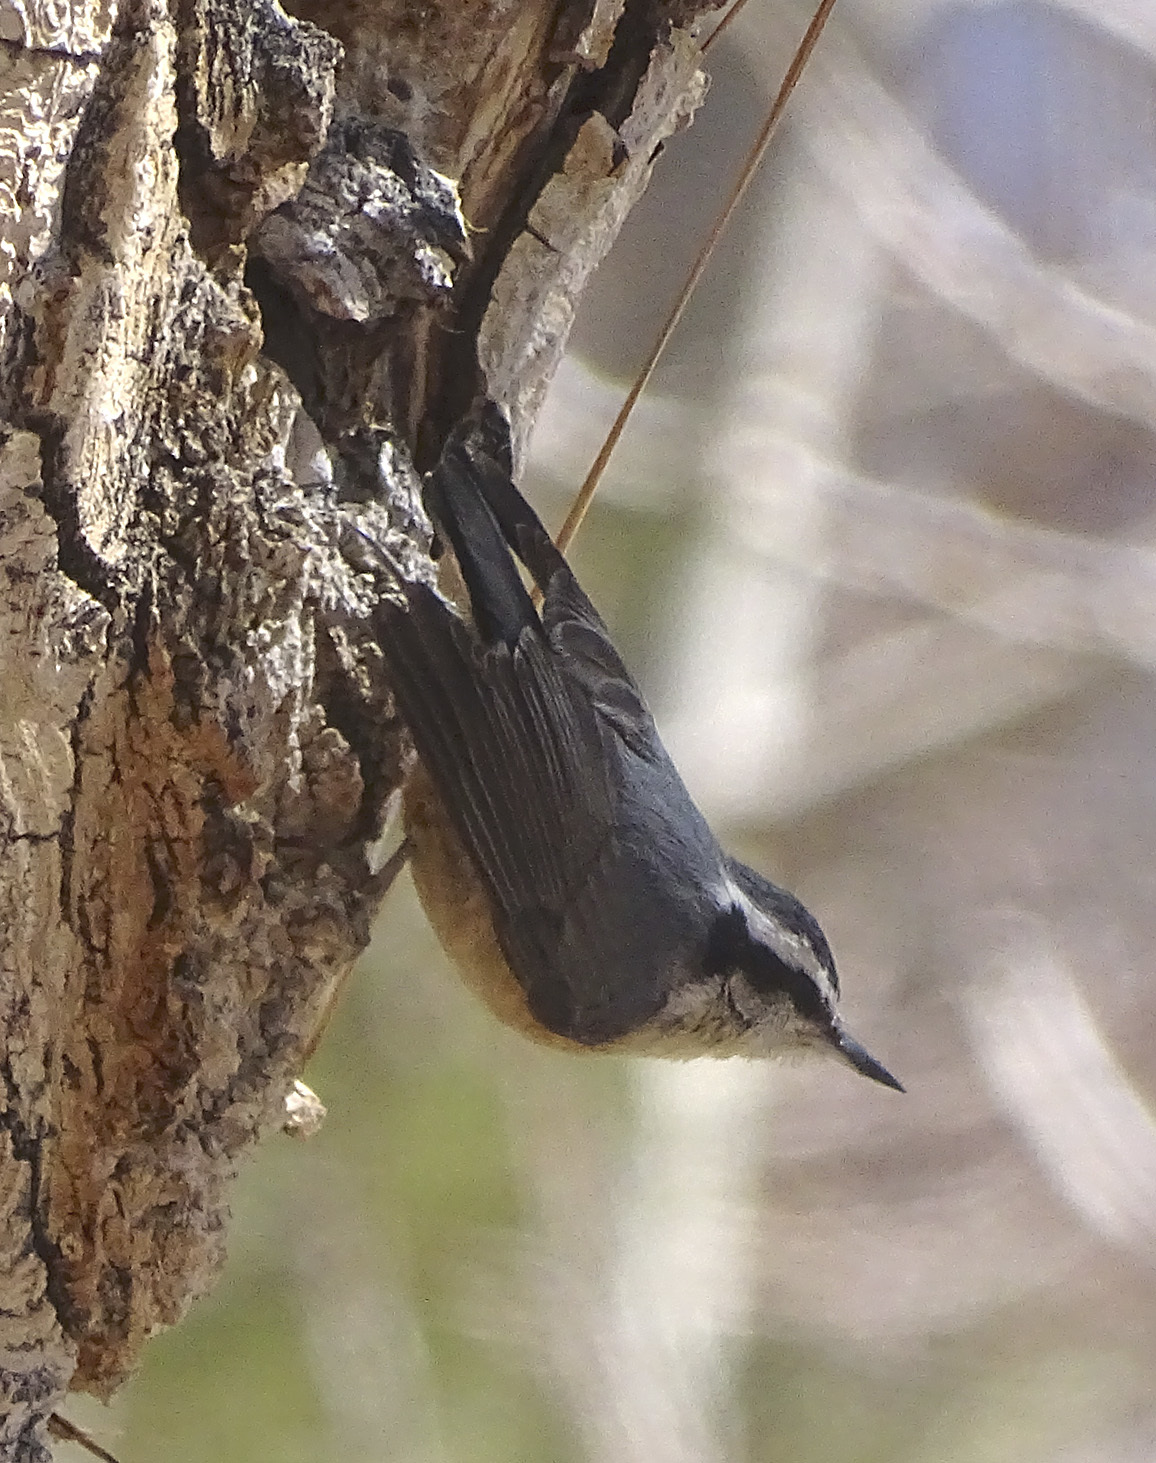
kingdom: Animalia
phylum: Chordata
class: Aves
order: Passeriformes
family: Sittidae
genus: Sitta
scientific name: Sitta canadensis
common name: Red-breasted nuthatch
